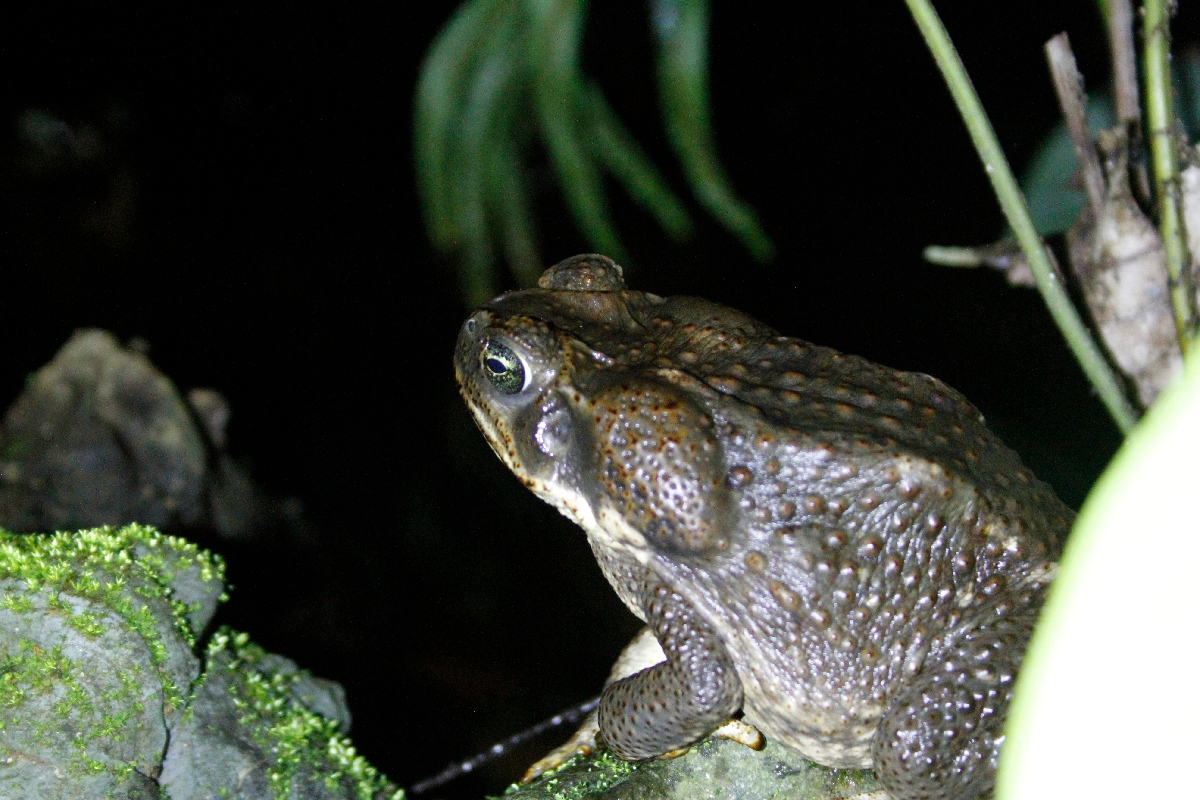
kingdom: Animalia
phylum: Chordata
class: Amphibia
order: Anura
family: Bufonidae
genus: Rhinella
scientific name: Rhinella horribilis
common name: Mesoamerican cane toad
